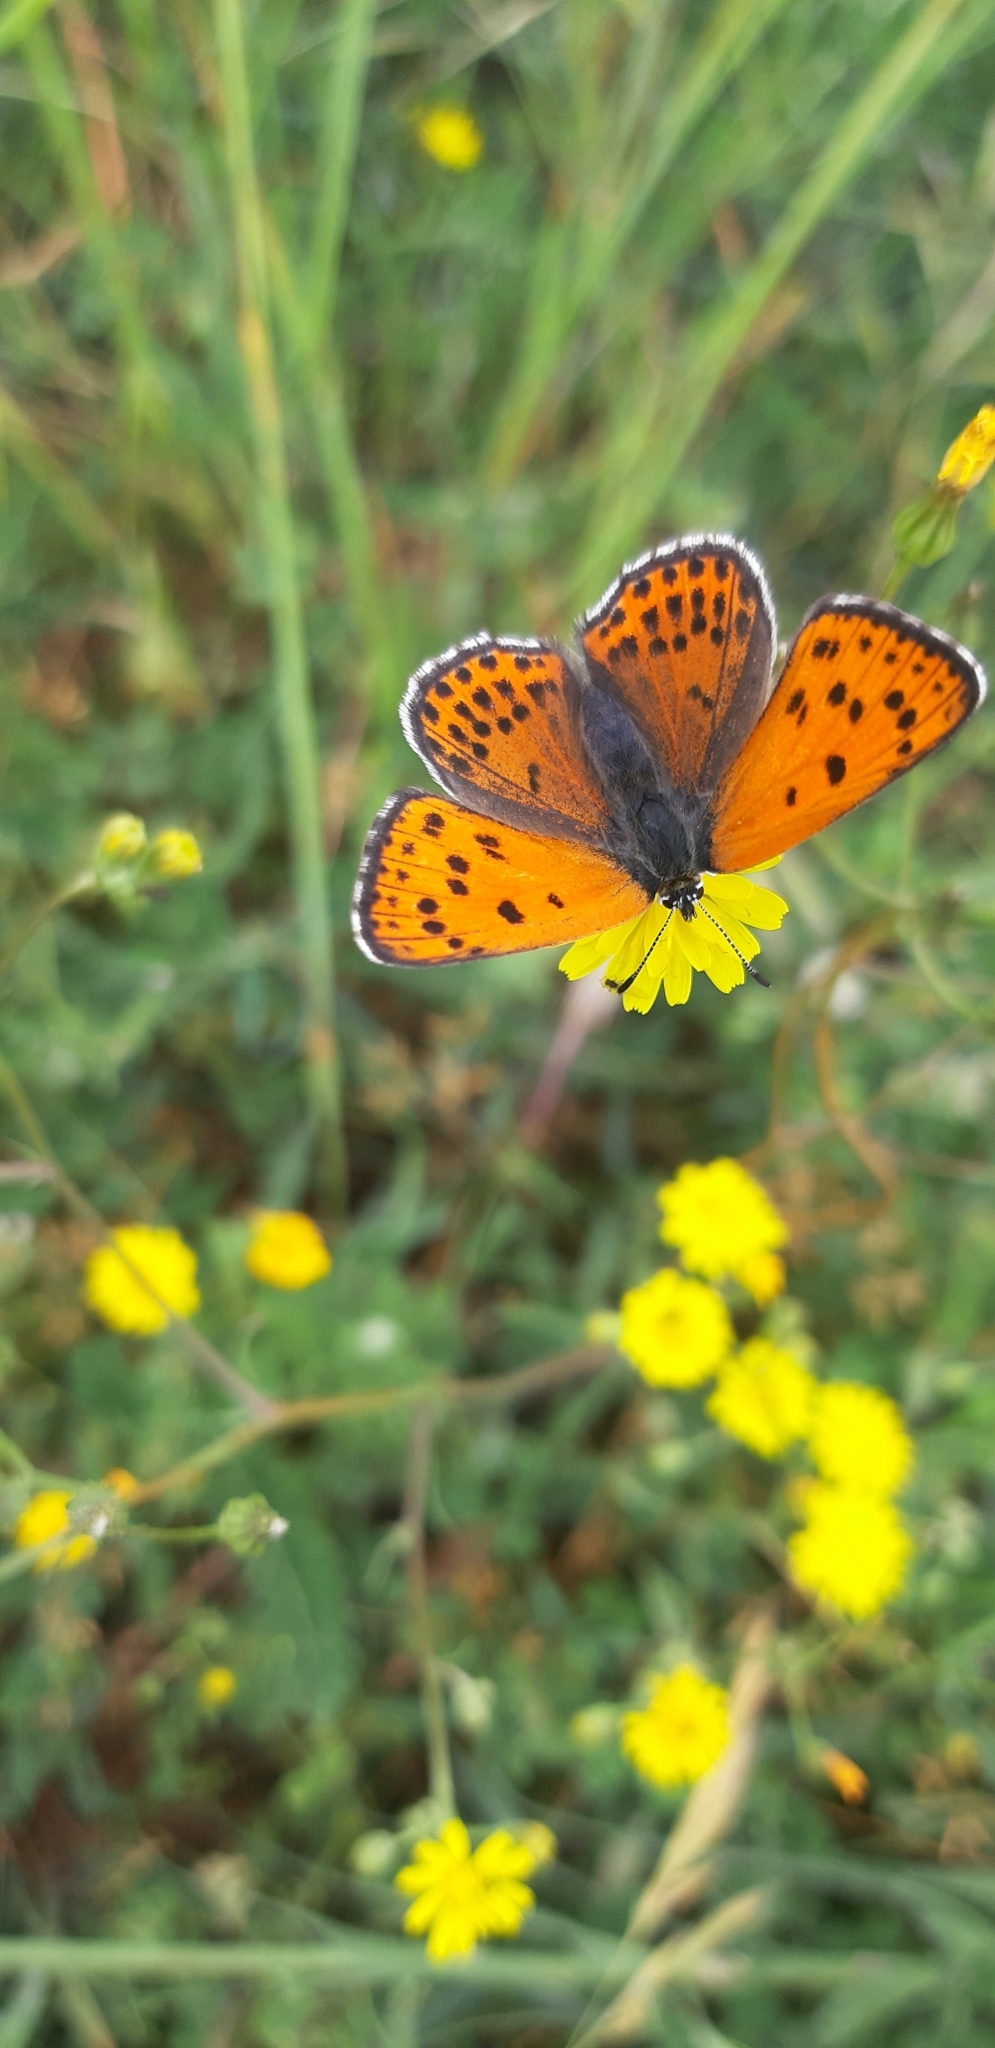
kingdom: Animalia
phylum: Arthropoda
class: Insecta
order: Lepidoptera
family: Lycaenidae
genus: Thersamonia
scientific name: Thersamonia thersamon
